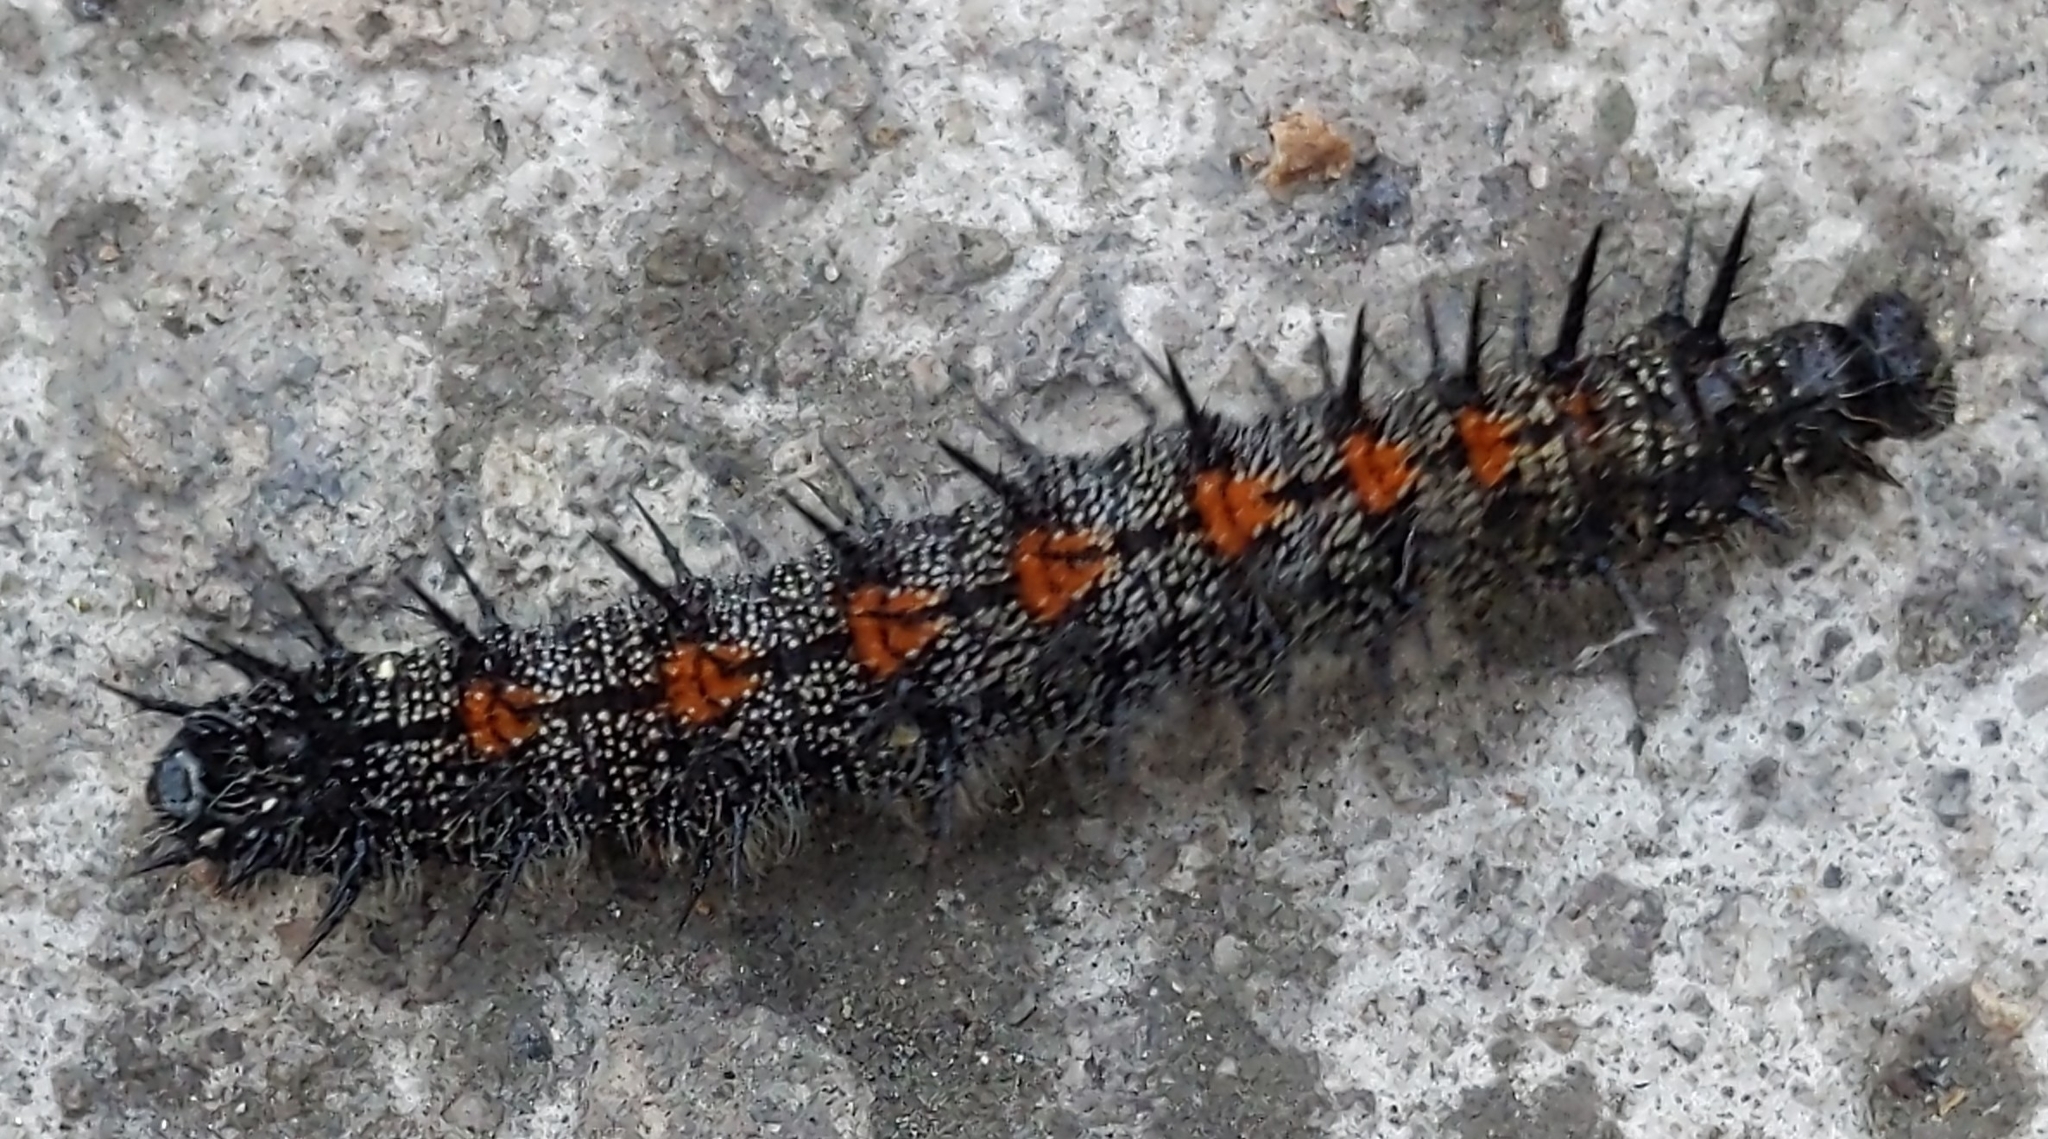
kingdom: Animalia
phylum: Arthropoda
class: Insecta
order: Lepidoptera
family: Nymphalidae
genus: Nymphalis
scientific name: Nymphalis antiopa
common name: Camberwell beauty
